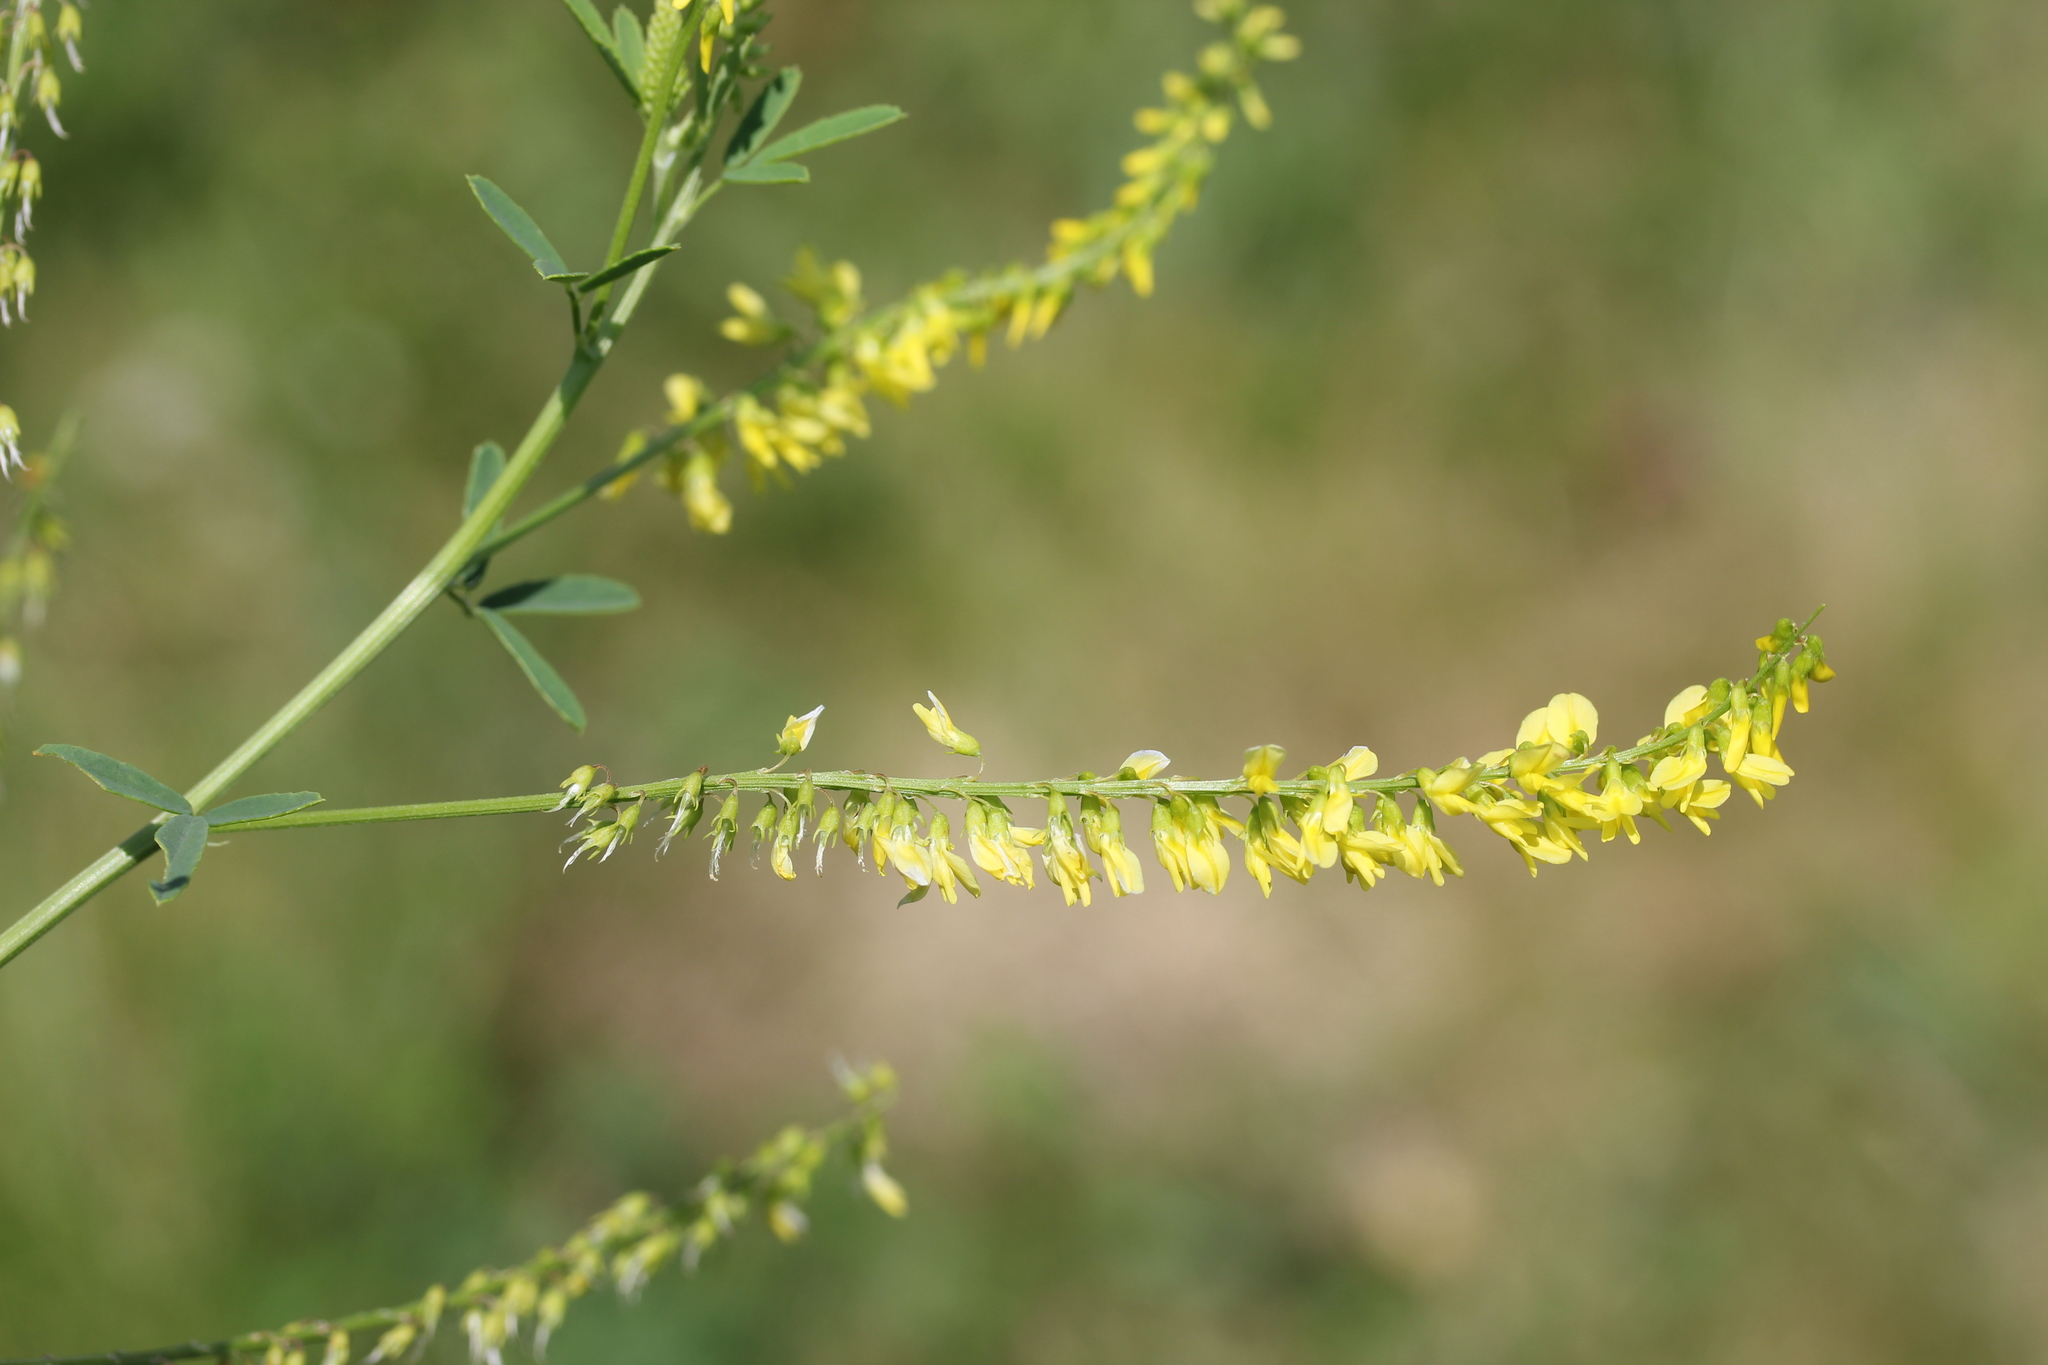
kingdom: Plantae
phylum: Tracheophyta
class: Magnoliopsida
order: Fabales
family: Fabaceae
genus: Melilotus
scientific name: Melilotus officinalis
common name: Sweetclover
